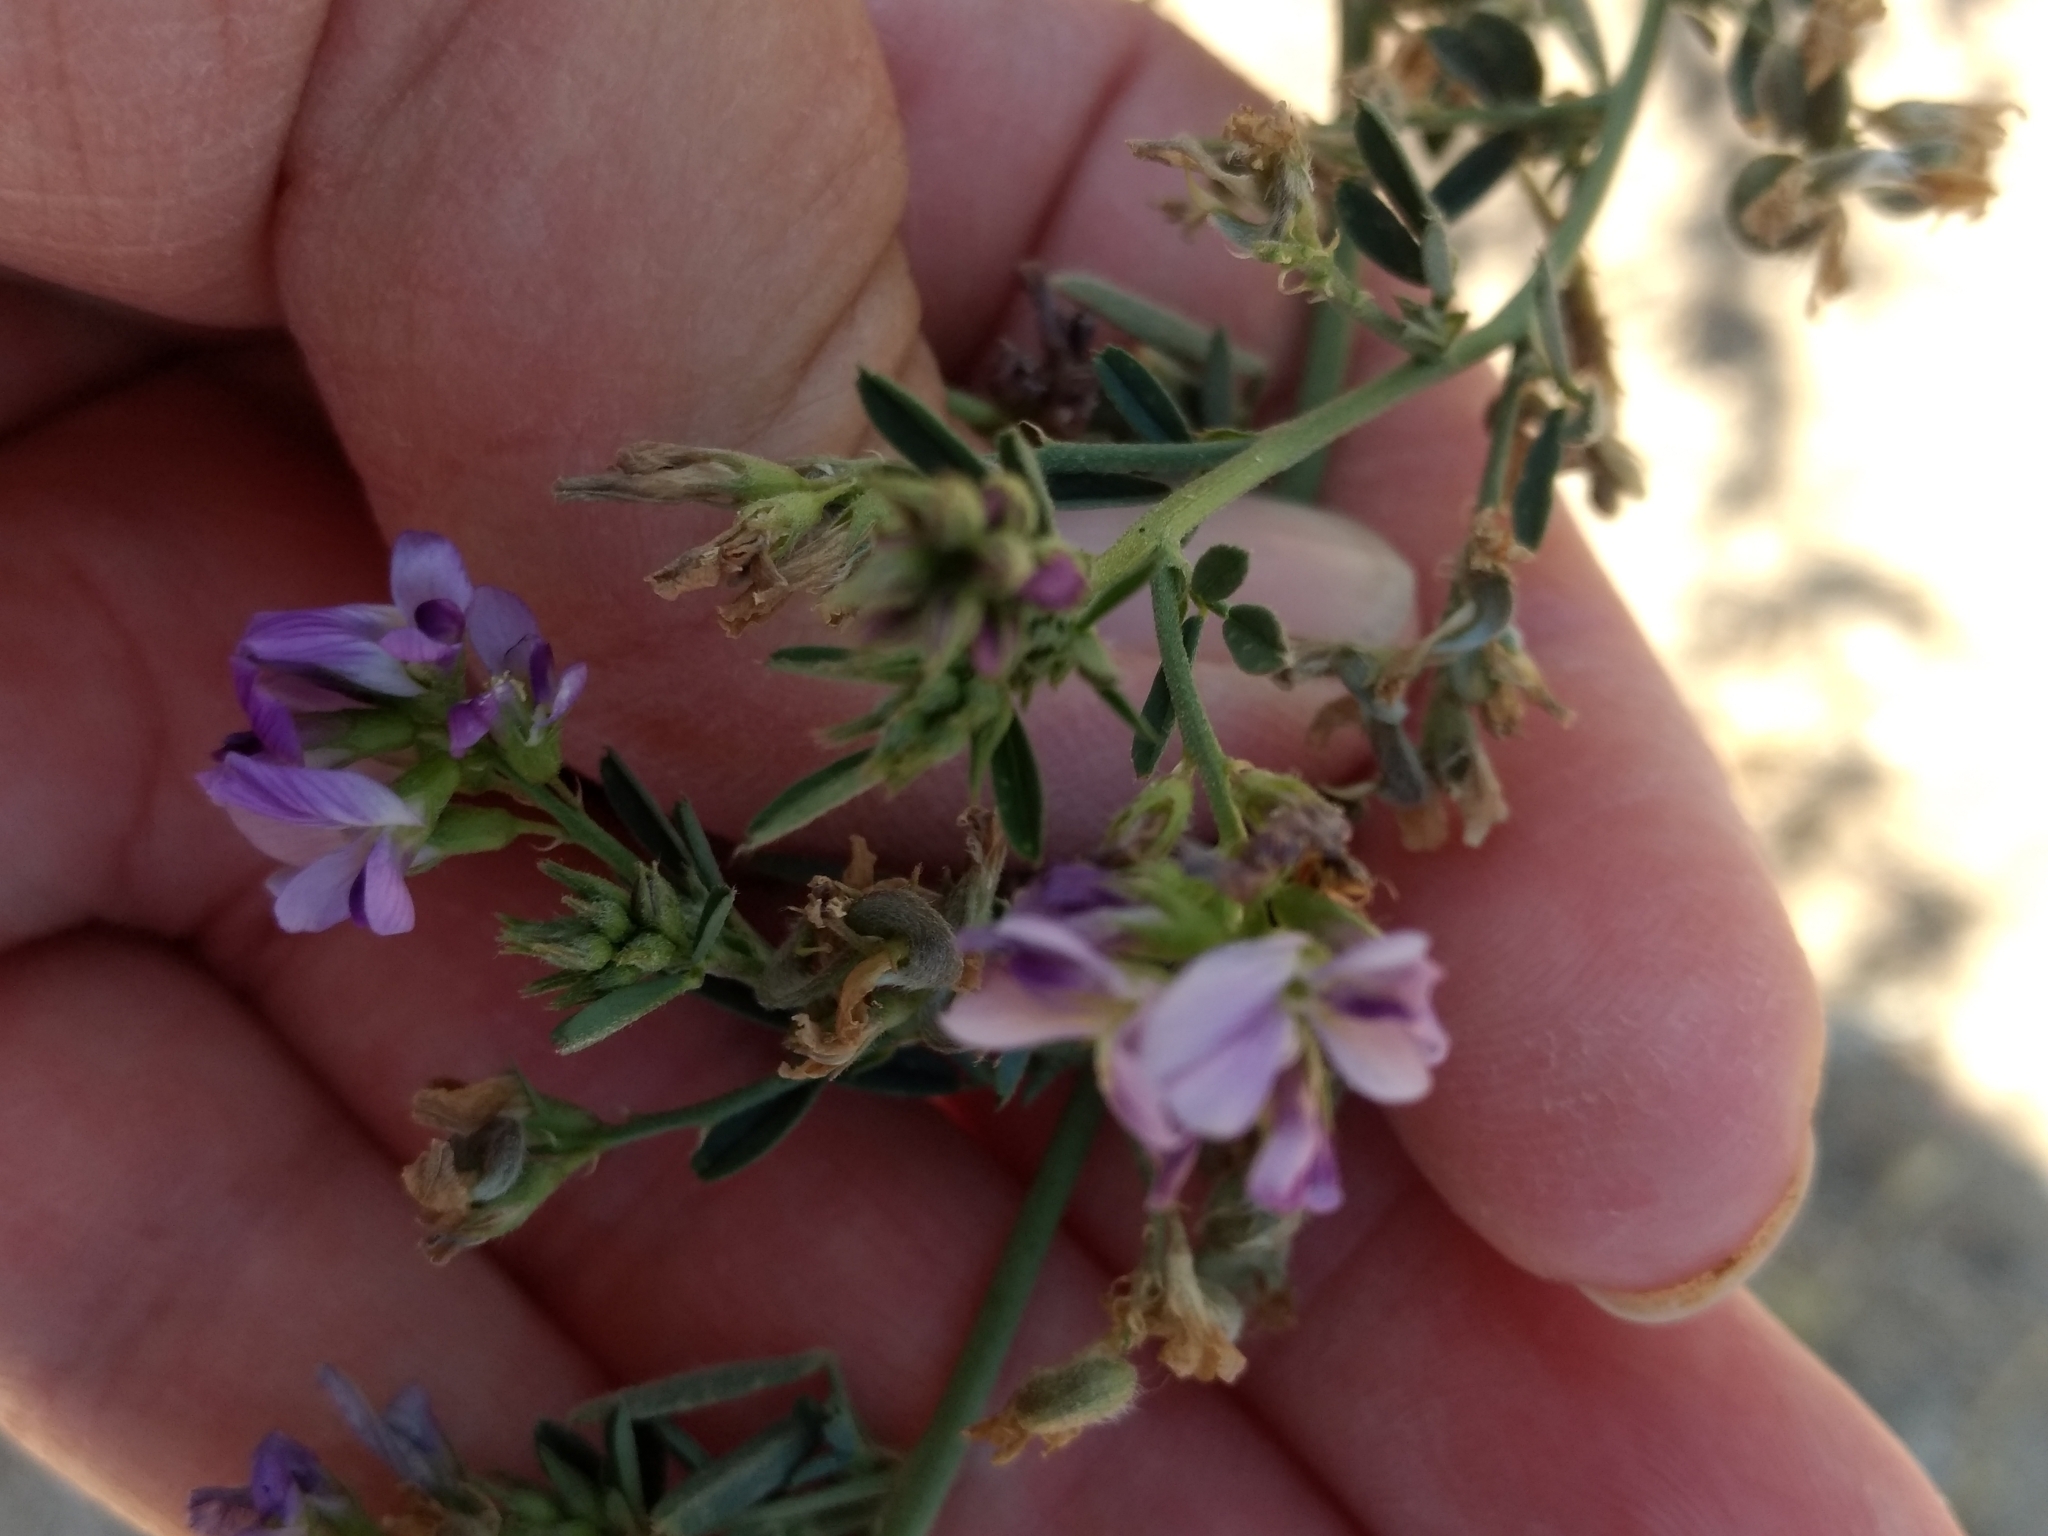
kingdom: Plantae
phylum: Tracheophyta
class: Magnoliopsida
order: Fabales
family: Fabaceae
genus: Medicago
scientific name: Medicago sativa
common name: Alfalfa
